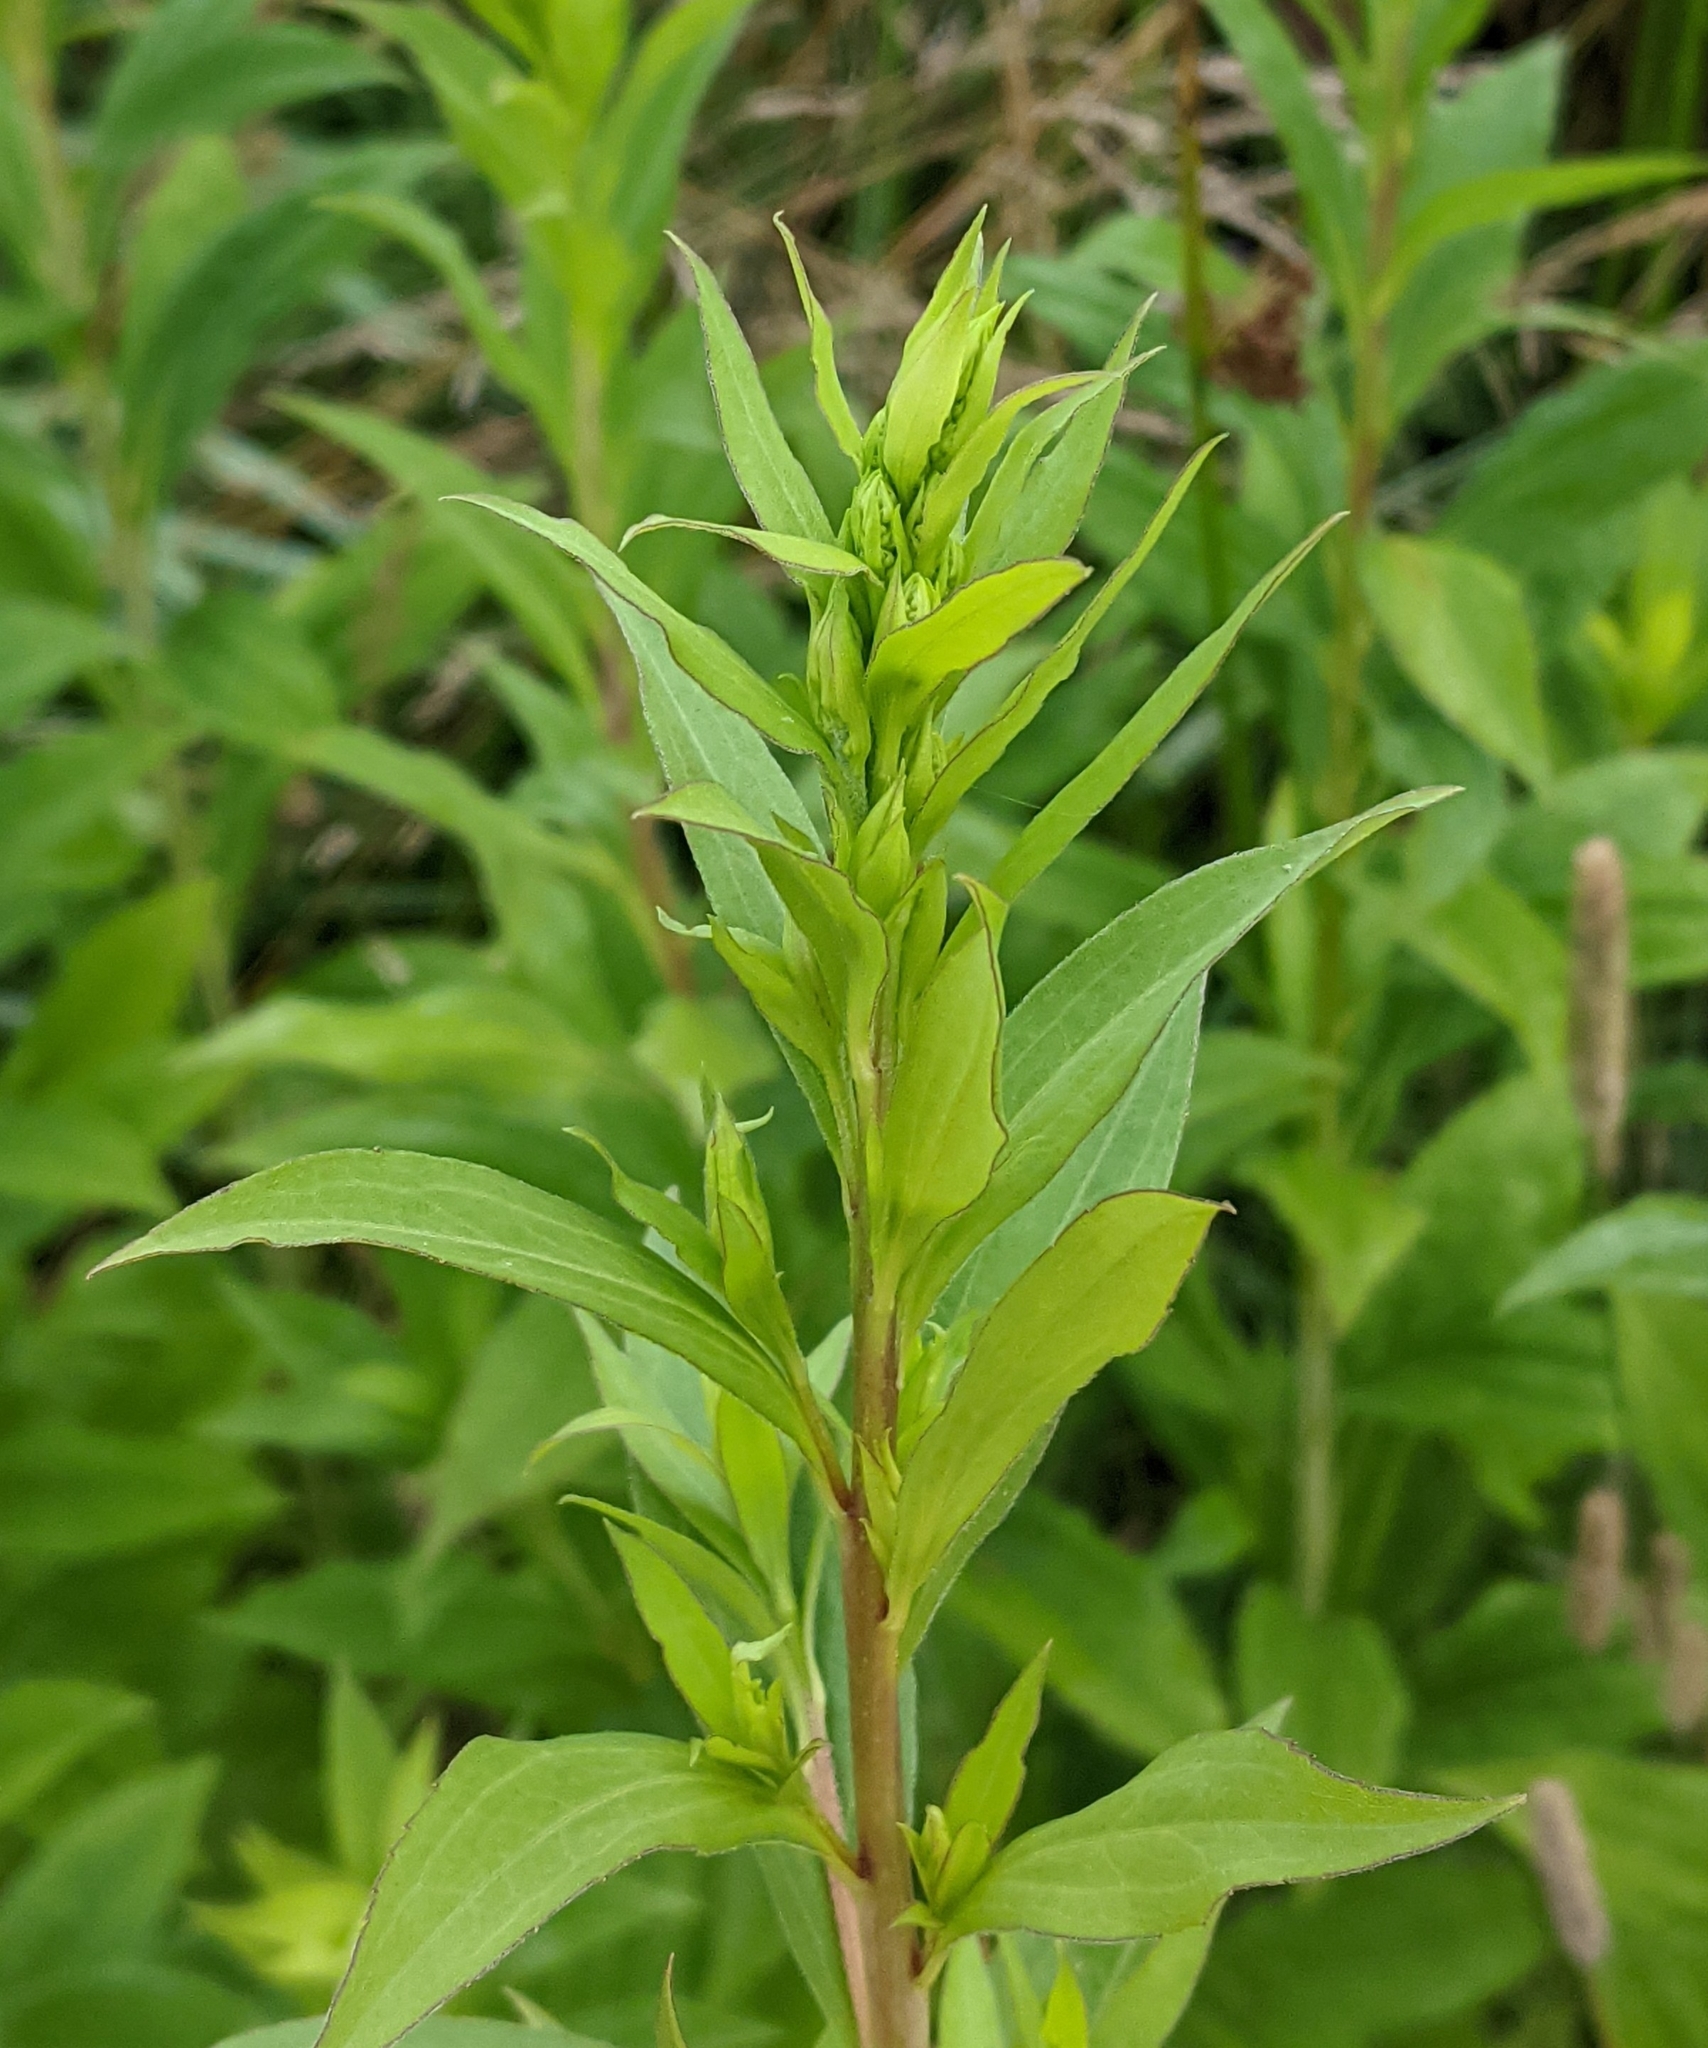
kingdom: Plantae
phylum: Tracheophyta
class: Magnoliopsida
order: Asterales
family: Asteraceae
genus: Solidago
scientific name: Solidago gigantea
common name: Giant goldenrod
